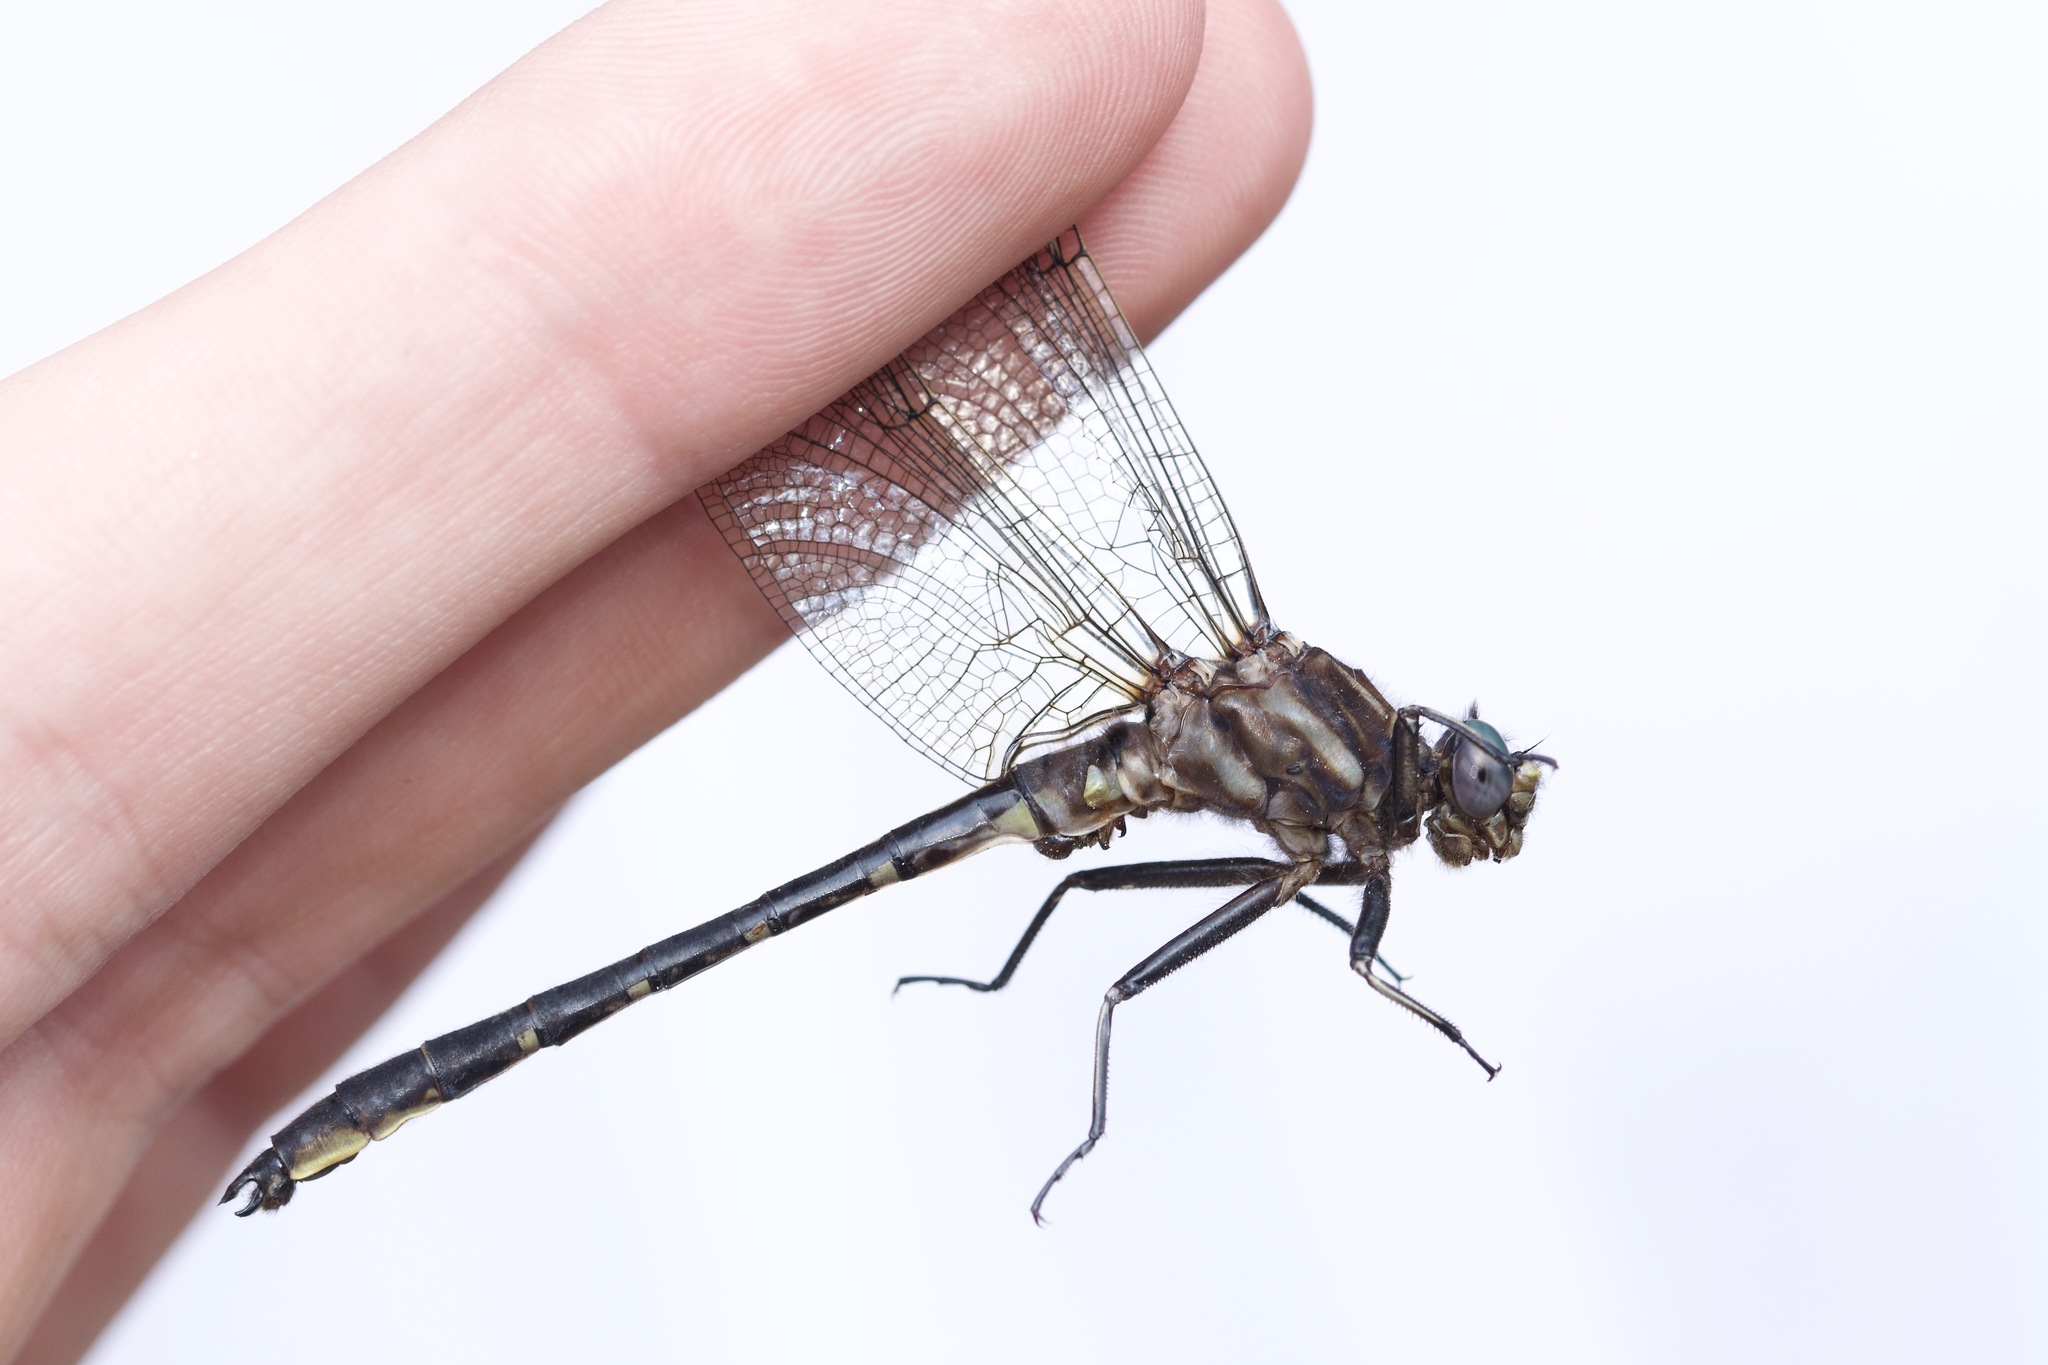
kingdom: Animalia
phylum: Arthropoda
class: Insecta
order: Odonata
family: Gomphidae
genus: Phanogomphus
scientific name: Phanogomphus lividus
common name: Ashy clubtail
